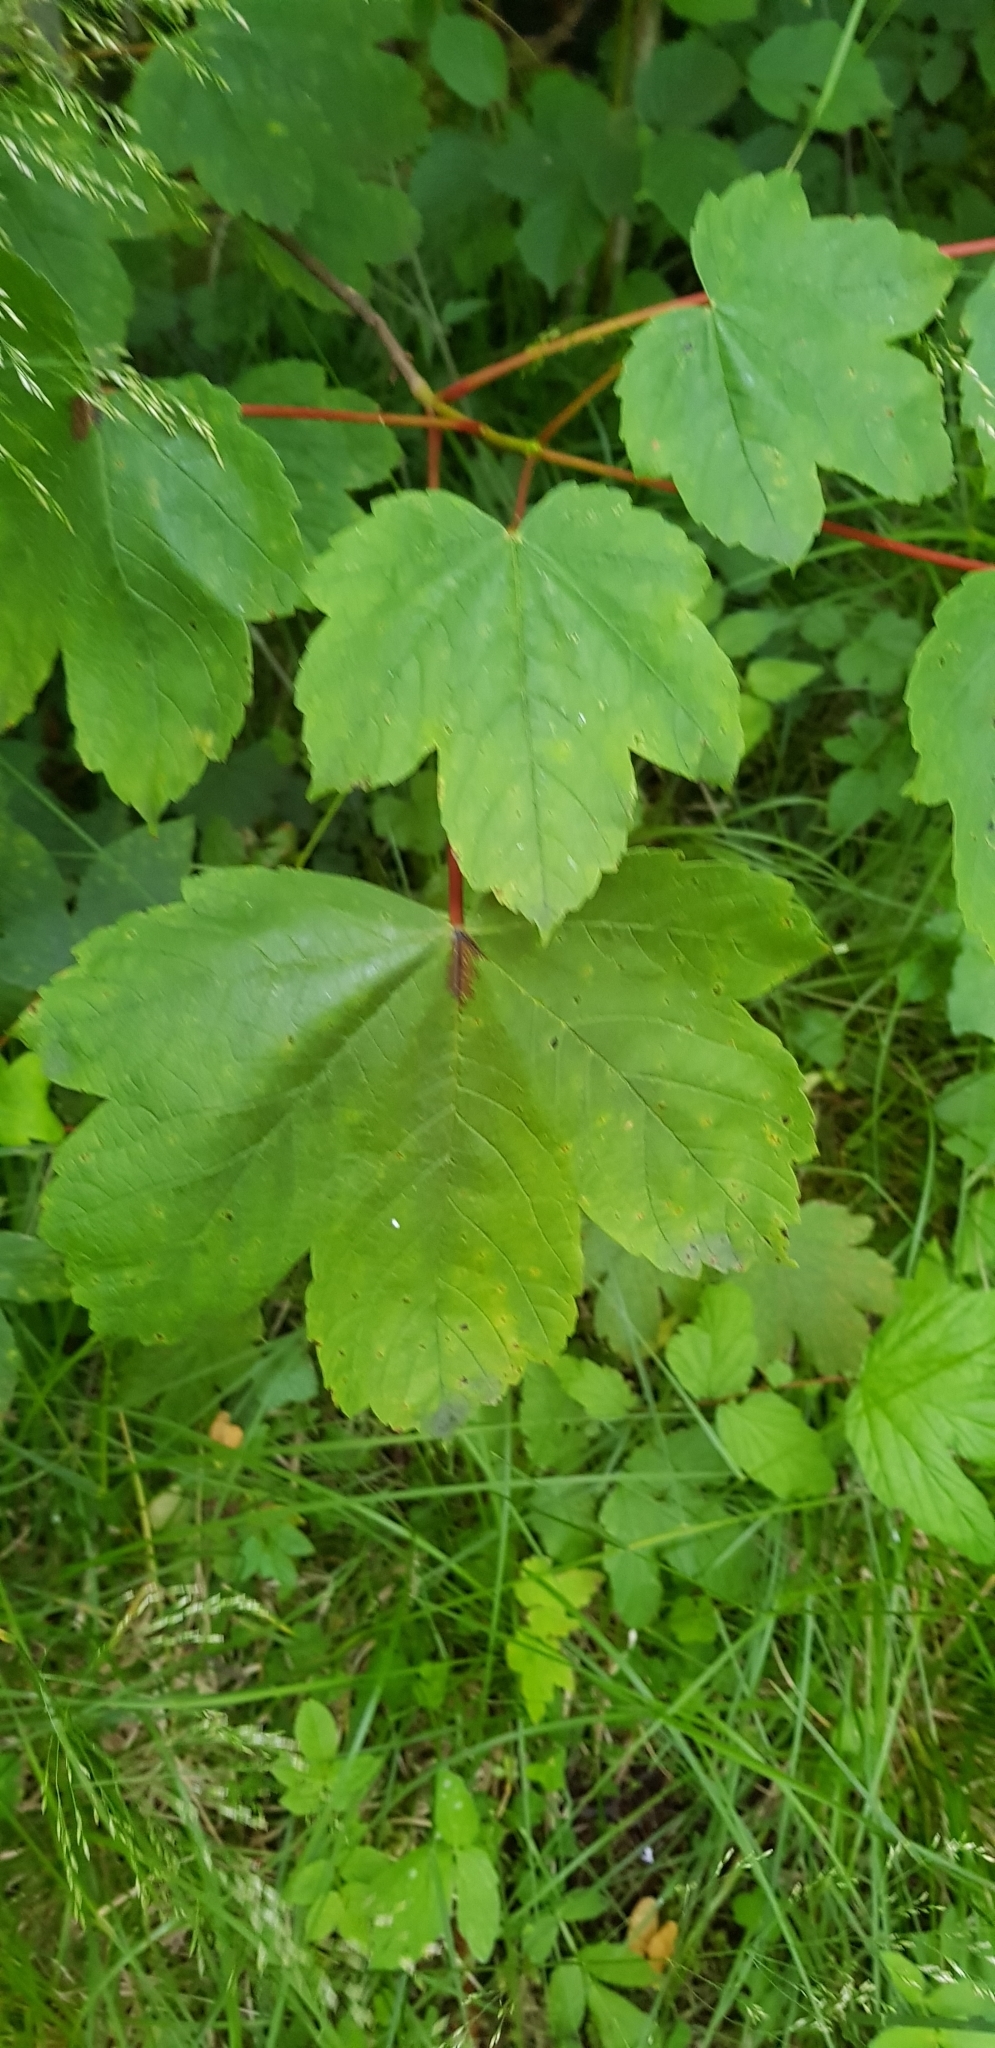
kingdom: Plantae
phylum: Tracheophyta
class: Magnoliopsida
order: Sapindales
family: Sapindaceae
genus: Acer
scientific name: Acer pseudoplatanus
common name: Sycamore
